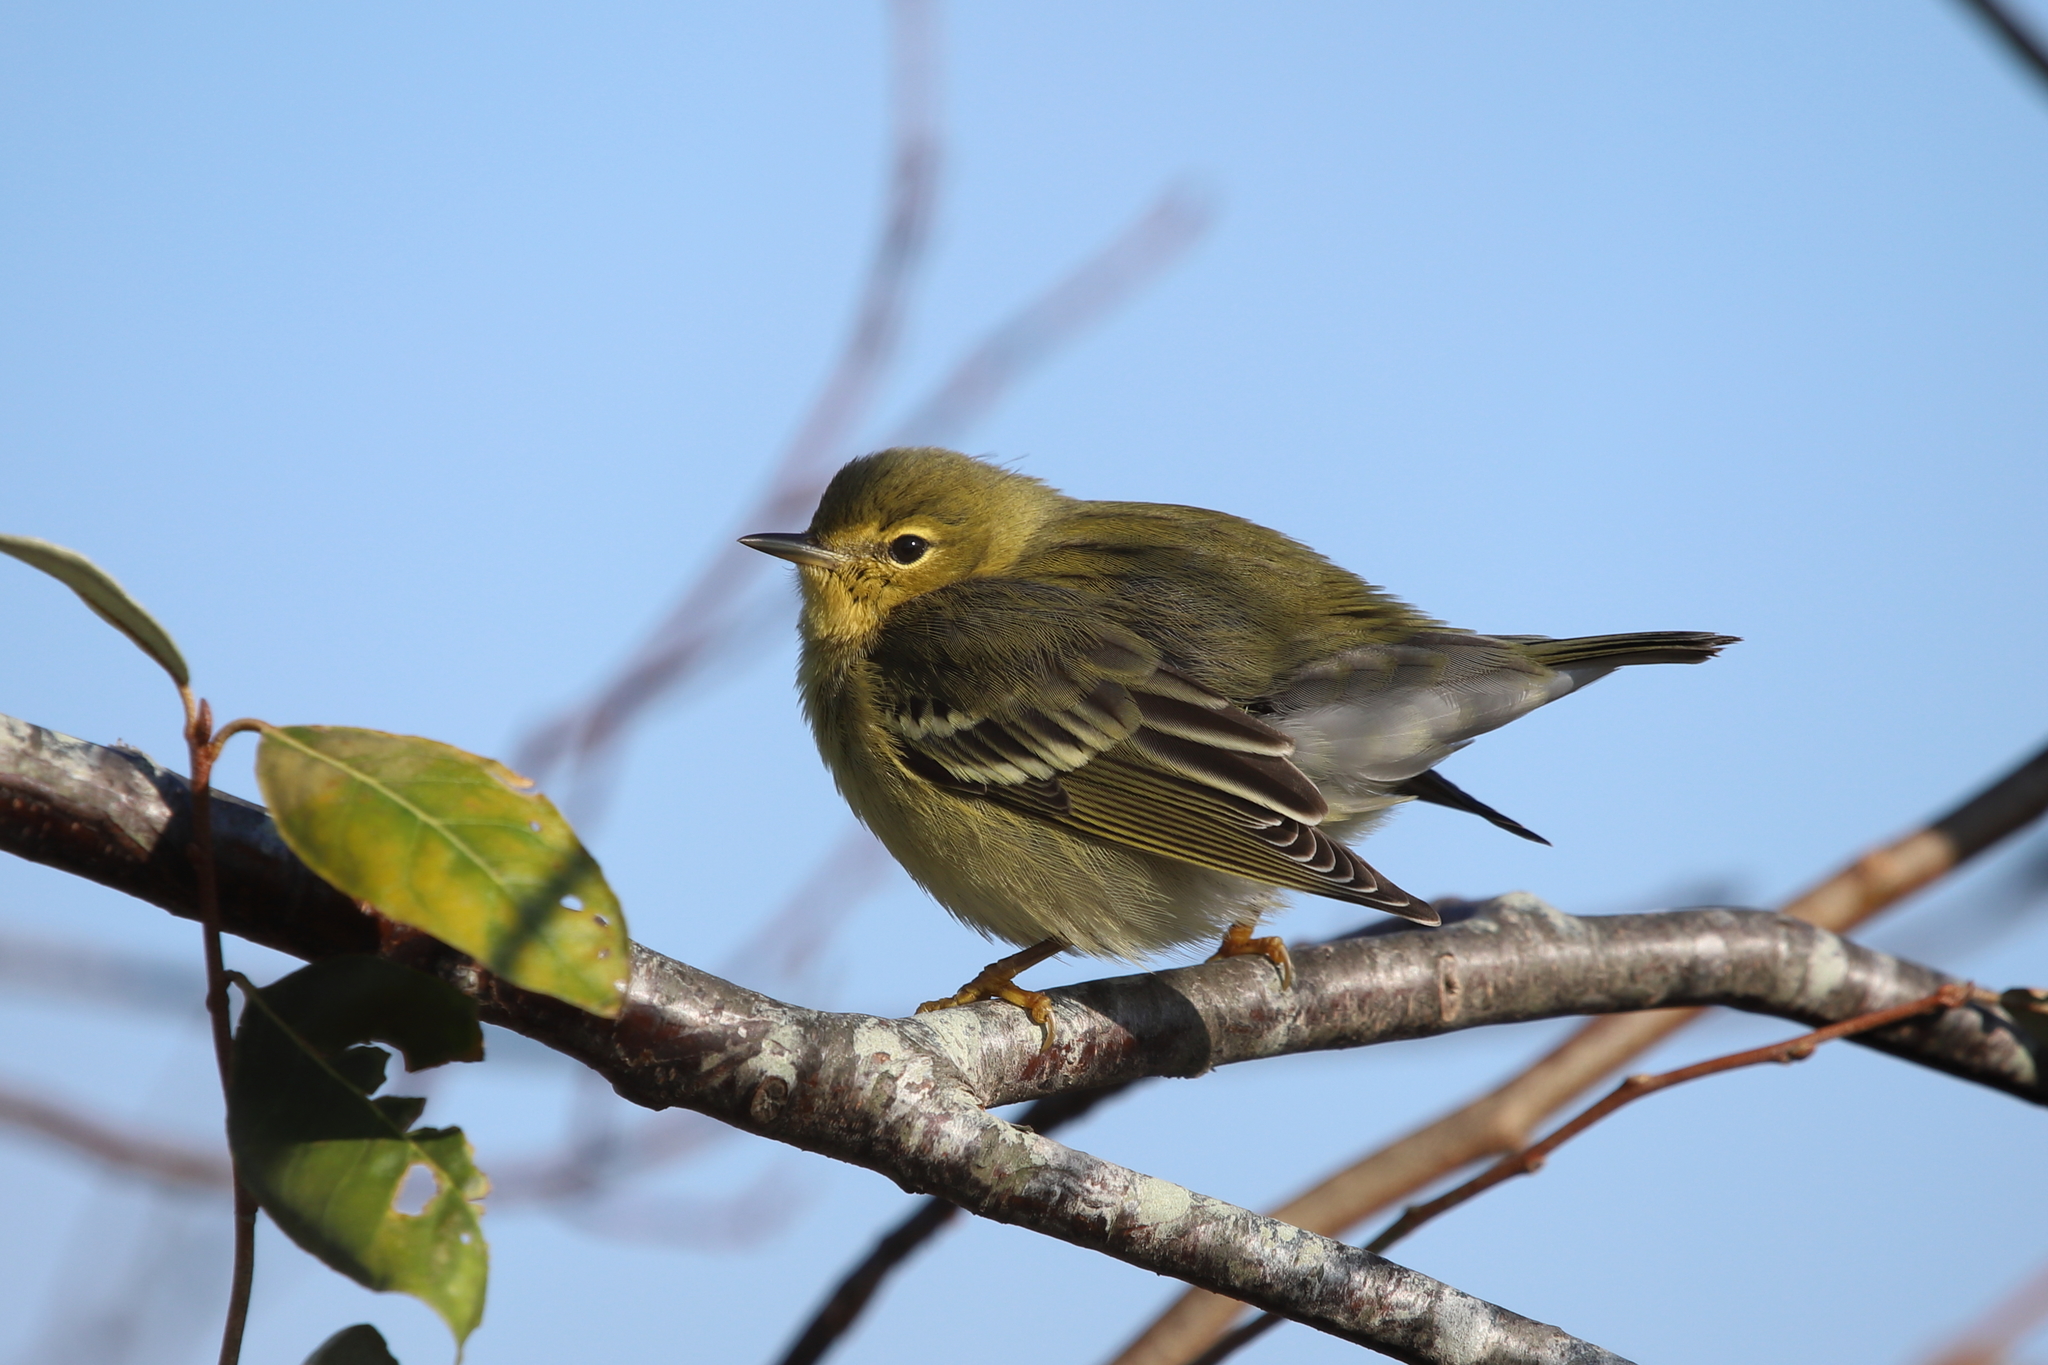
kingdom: Animalia
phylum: Chordata
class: Aves
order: Passeriformes
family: Parulidae
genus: Setophaga
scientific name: Setophaga striata
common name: Blackpoll warbler
